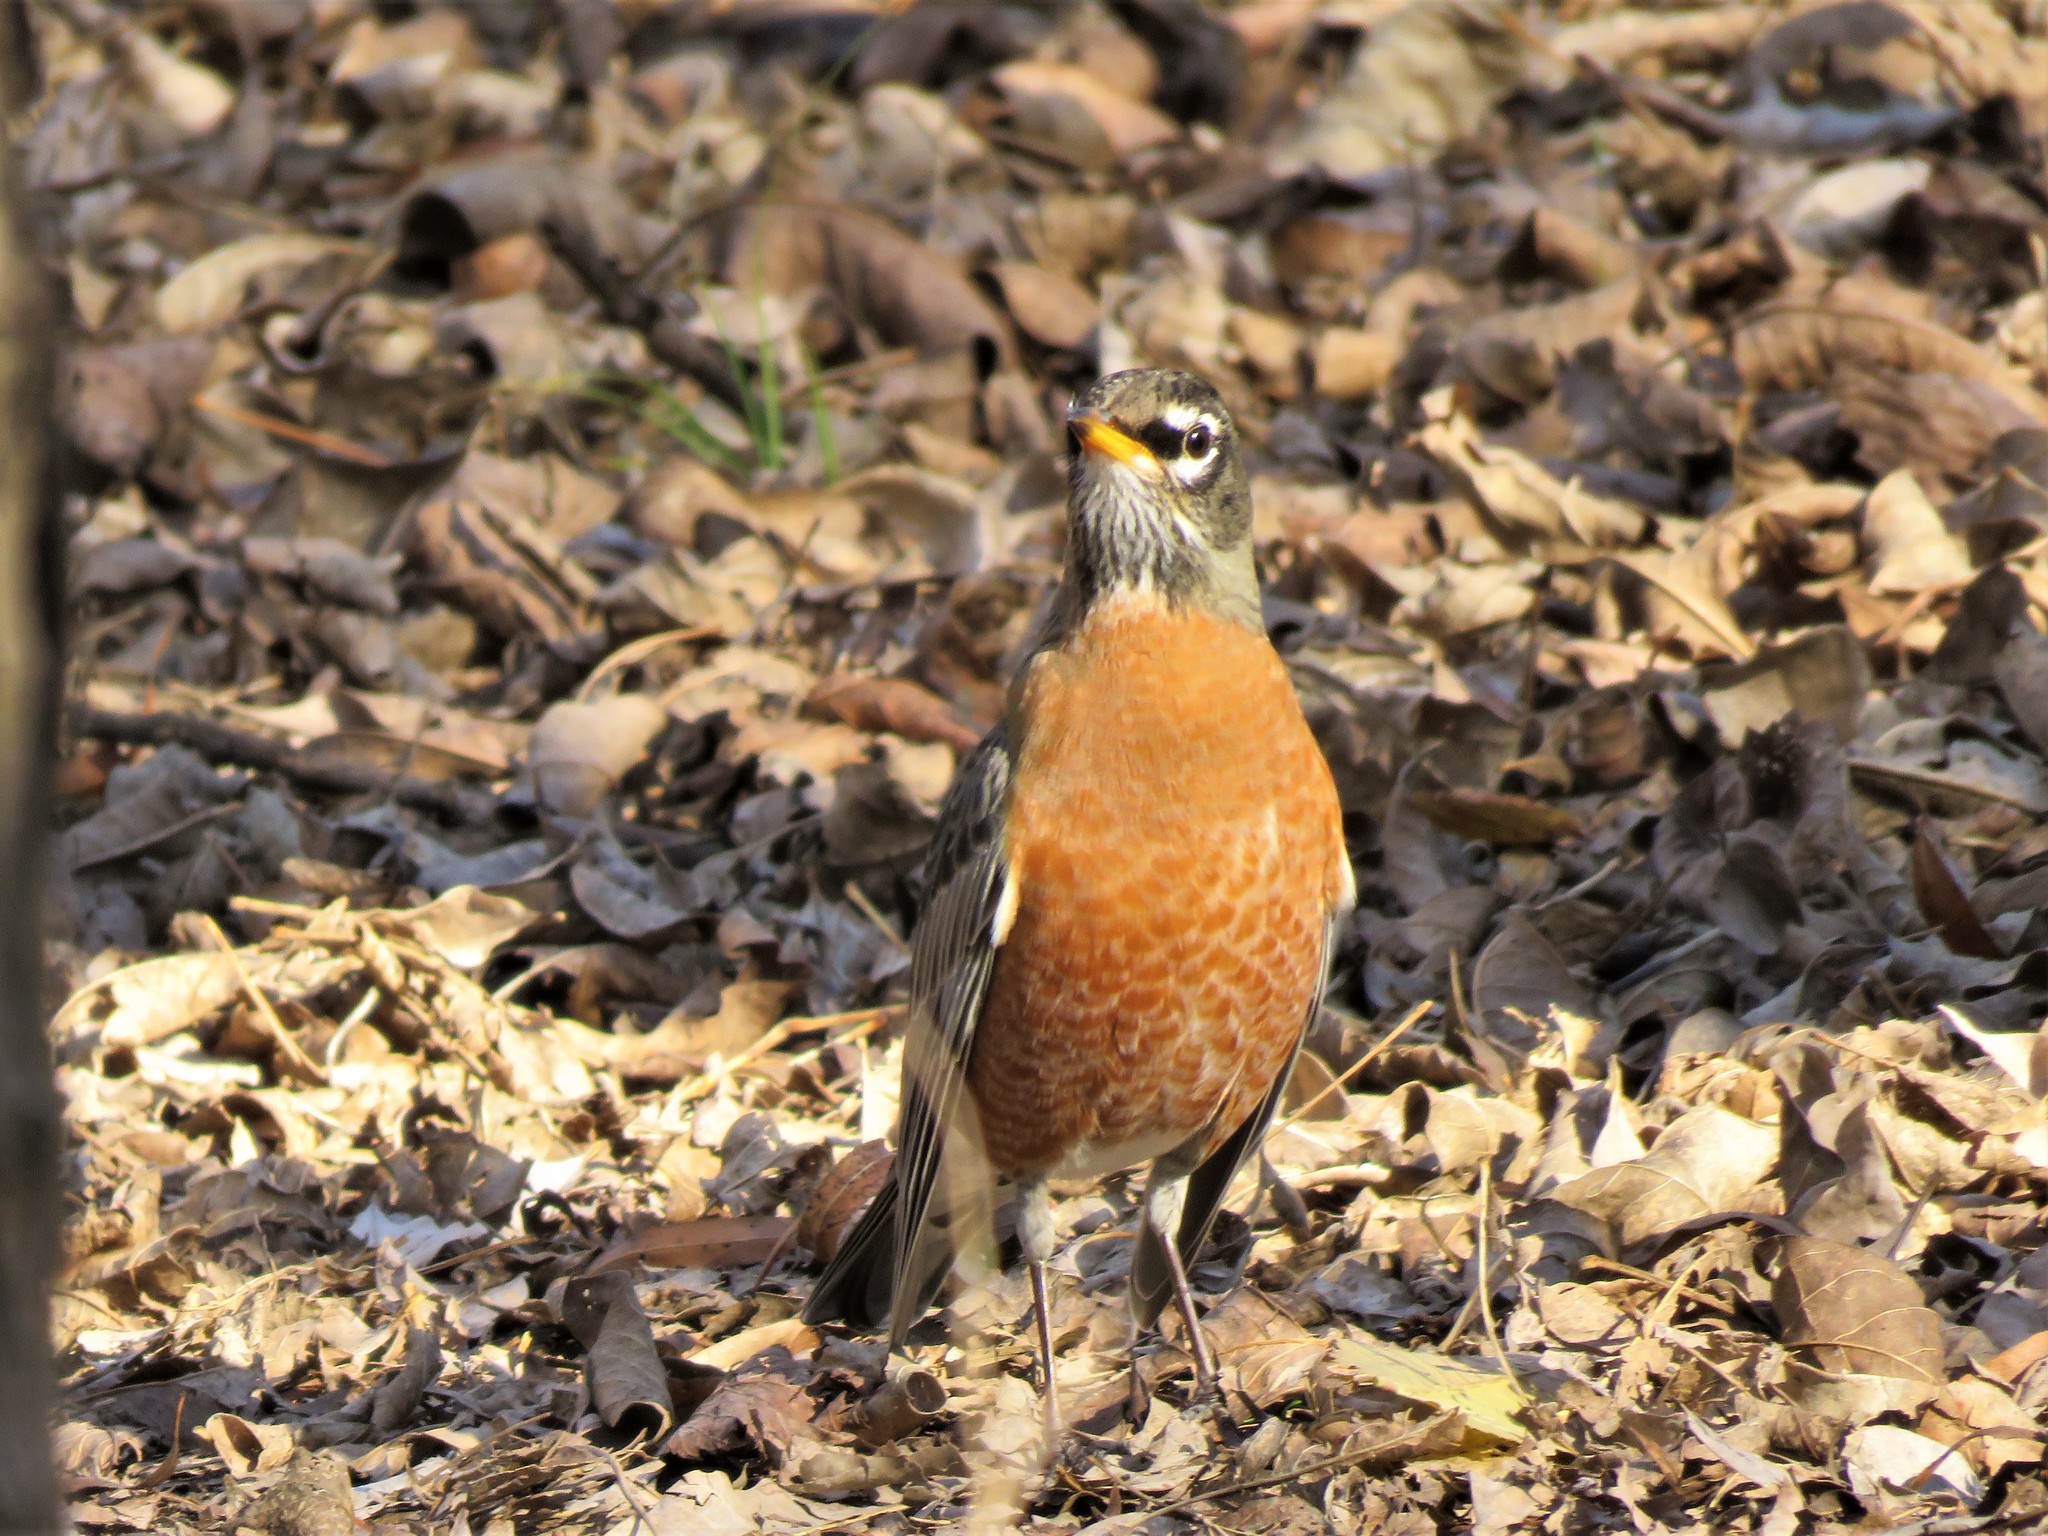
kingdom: Animalia
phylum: Chordata
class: Aves
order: Passeriformes
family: Turdidae
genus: Turdus
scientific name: Turdus migratorius
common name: American robin
